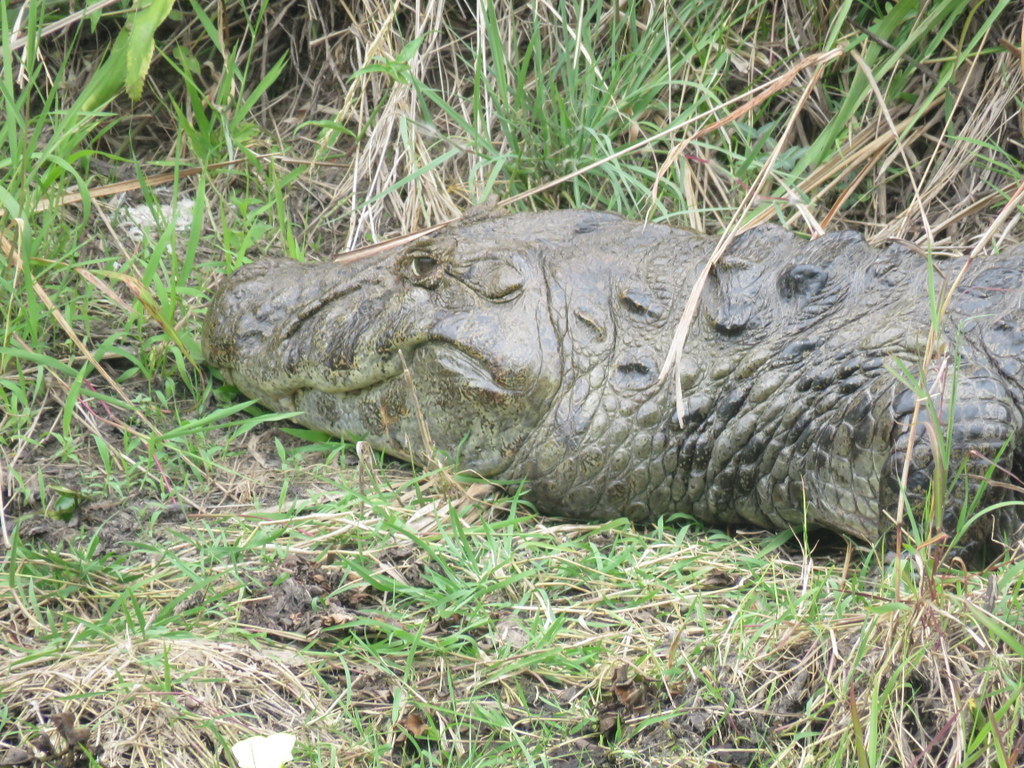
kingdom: Animalia
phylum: Chordata
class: Crocodylia
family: Alligatoridae
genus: Caiman
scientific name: Caiman latirostris
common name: Broad-snouted caiman
